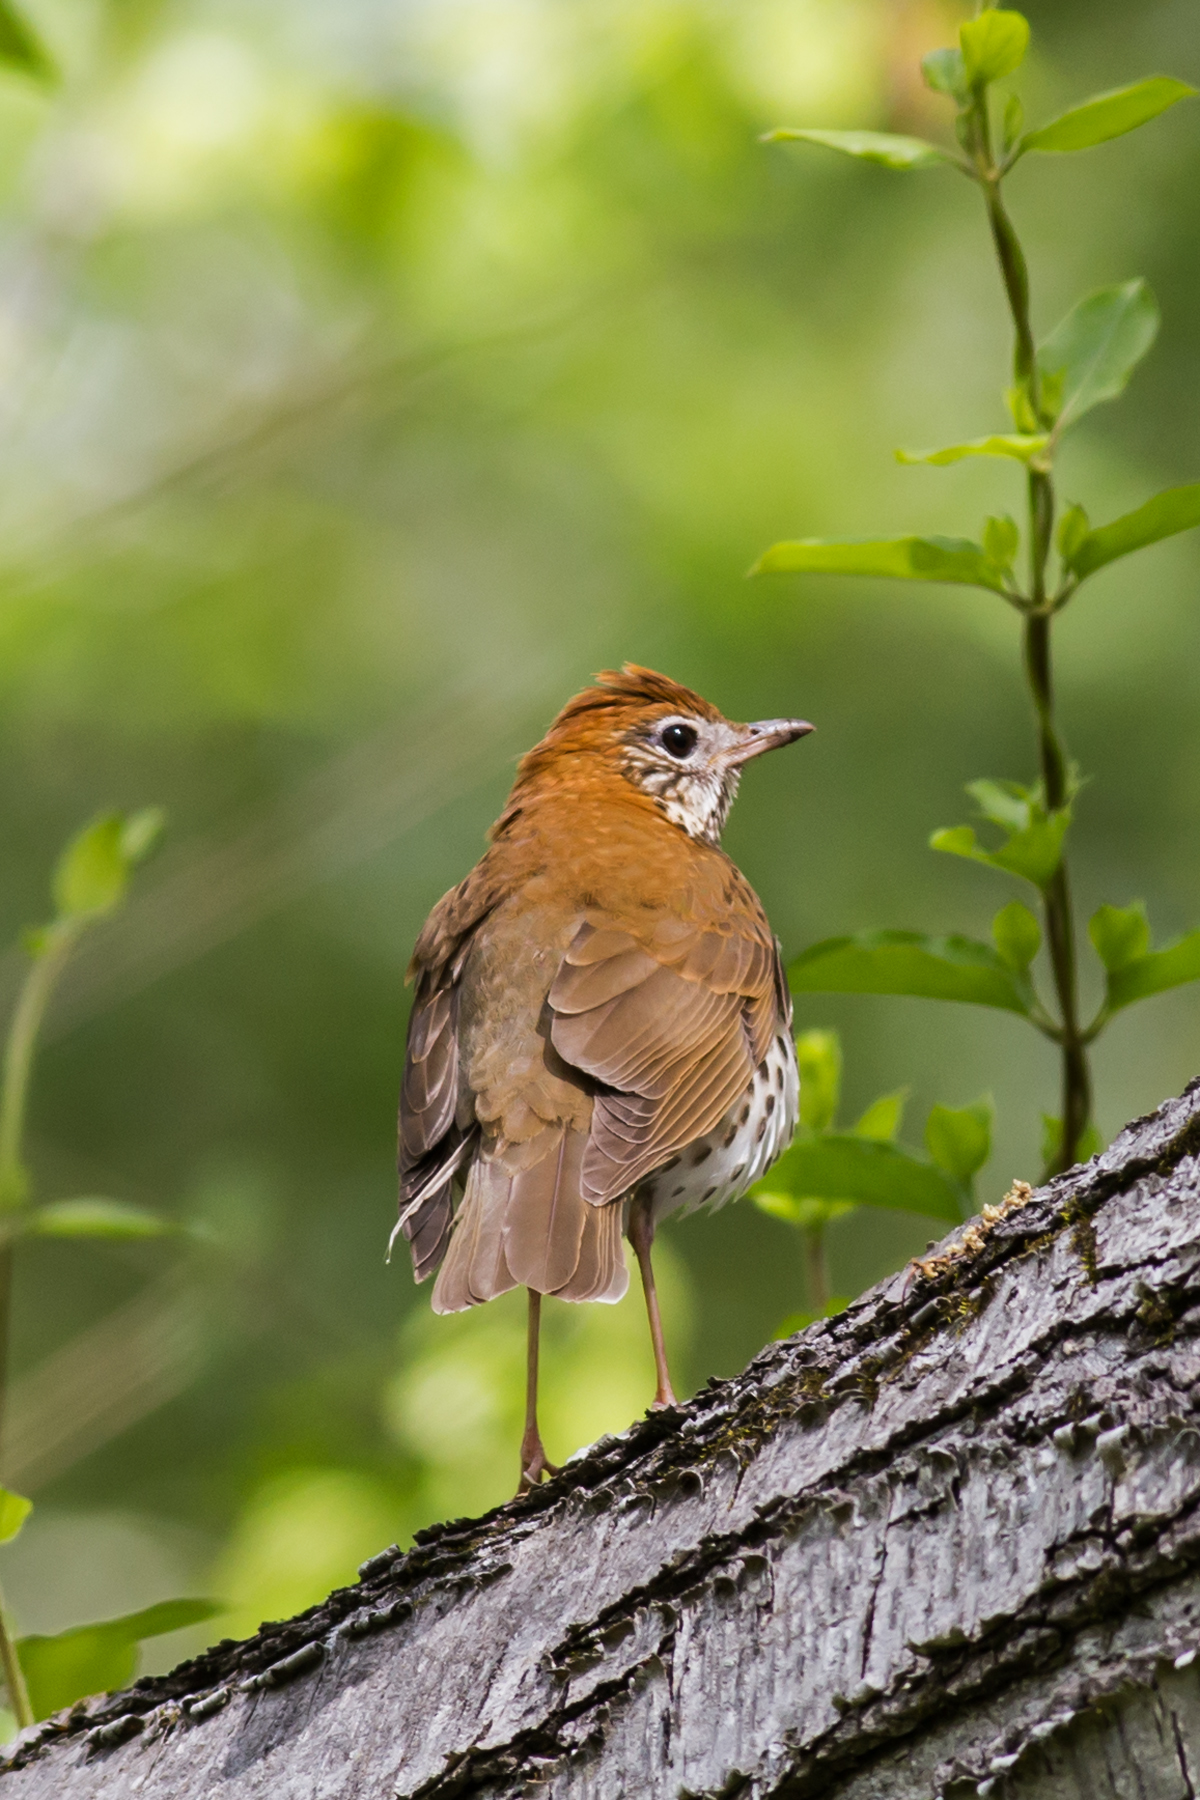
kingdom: Animalia
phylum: Chordata
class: Aves
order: Passeriformes
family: Turdidae
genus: Hylocichla
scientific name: Hylocichla mustelina
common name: Wood thrush
